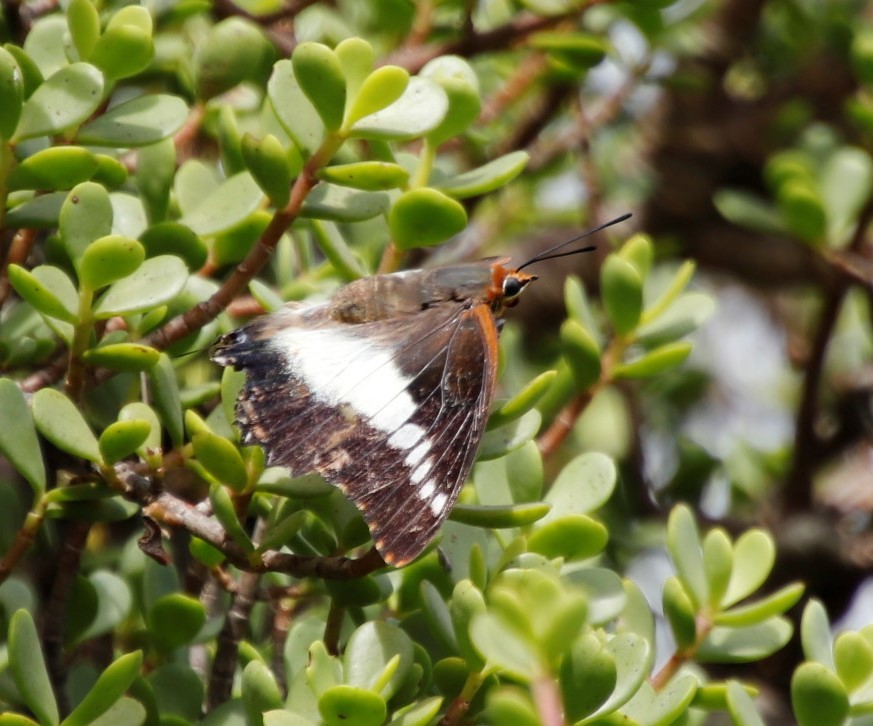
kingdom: Animalia
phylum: Arthropoda
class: Insecta
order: Lepidoptera
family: Nymphalidae
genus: Charaxes
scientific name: Charaxes brutus
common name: White-barred charaxes
